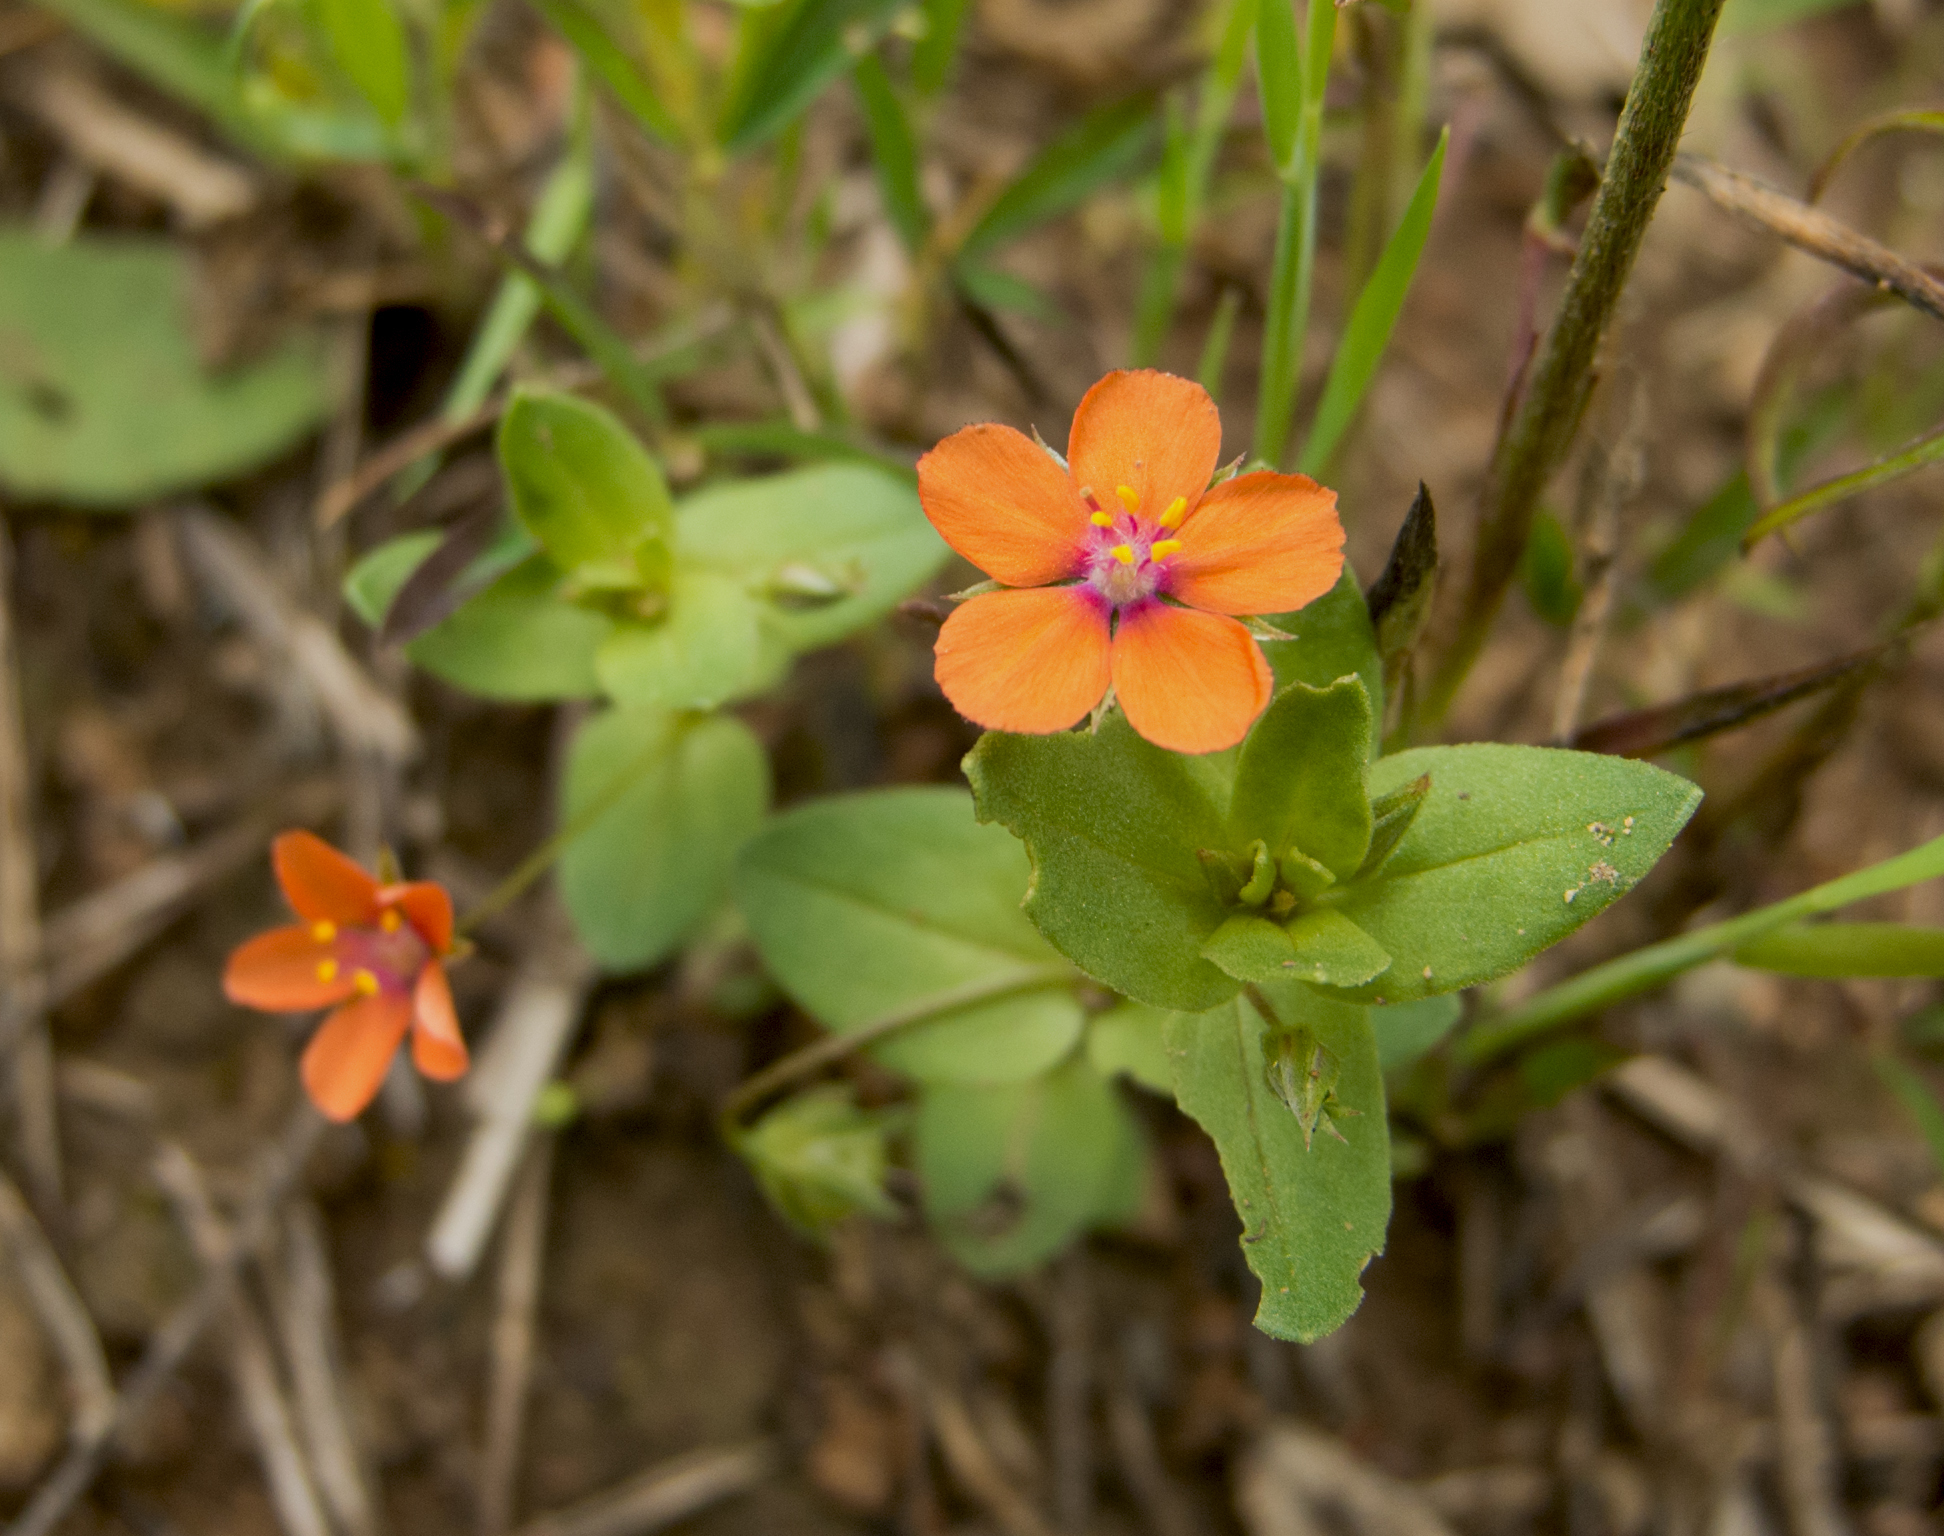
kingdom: Plantae
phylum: Tracheophyta
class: Magnoliopsida
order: Ericales
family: Primulaceae
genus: Lysimachia
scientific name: Lysimachia arvensis
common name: Scarlet pimpernel
